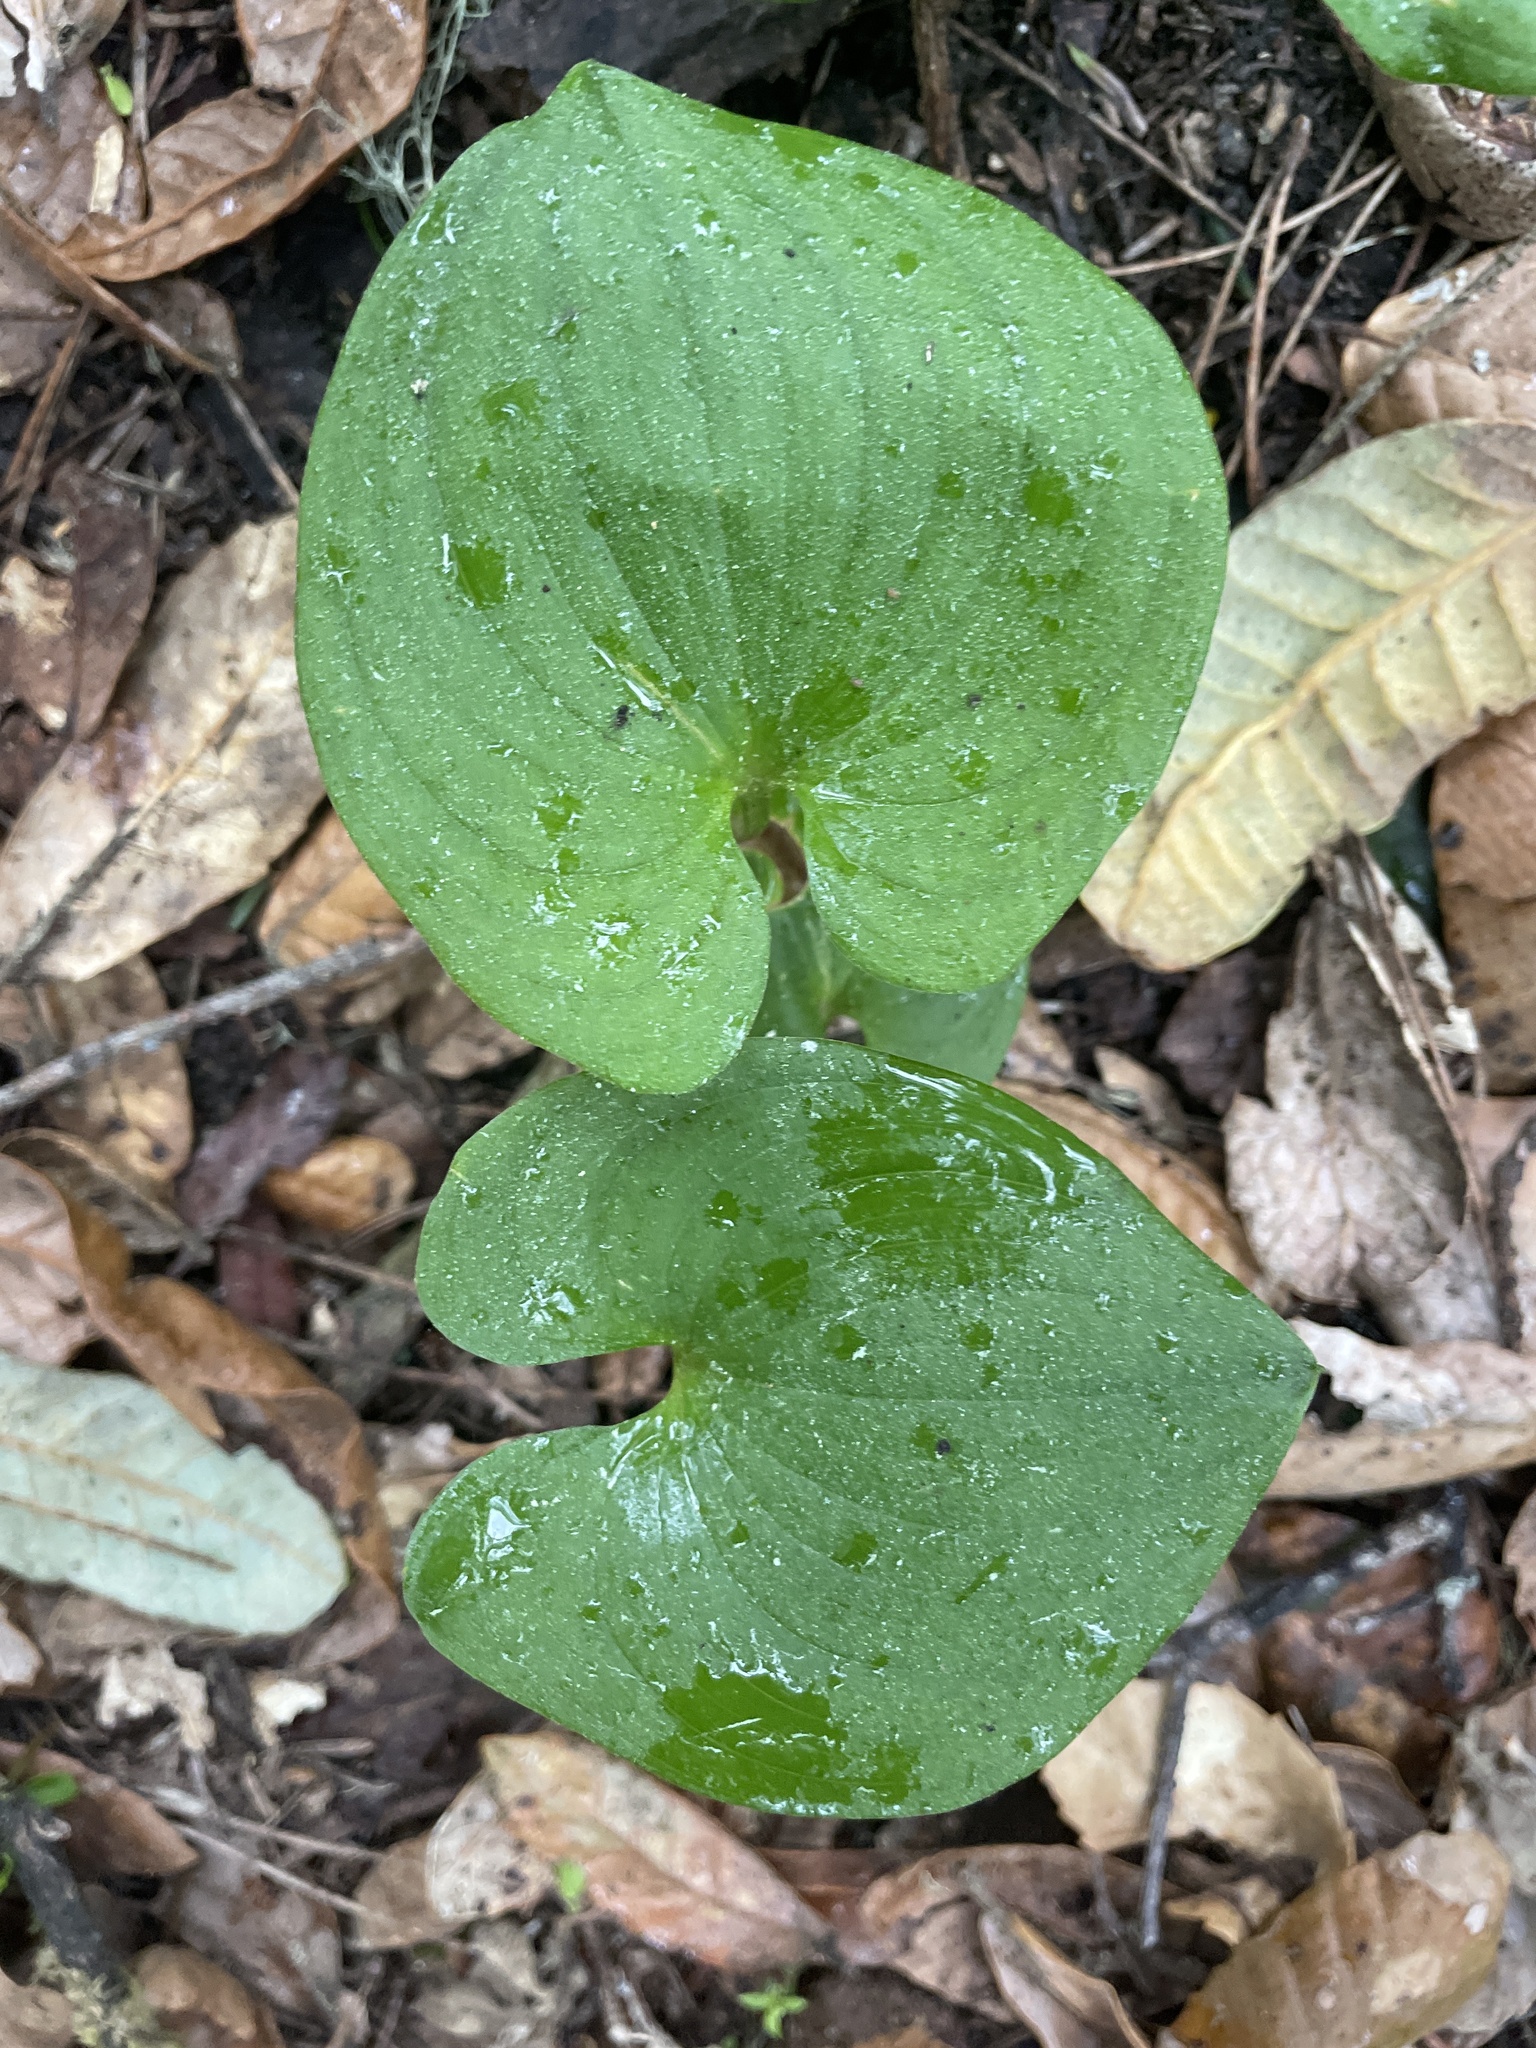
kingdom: Plantae
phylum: Tracheophyta
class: Liliopsida
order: Asparagales
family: Asparagaceae
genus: Maianthemum
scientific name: Maianthemum dilatatum
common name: False lily-of-the-valley
